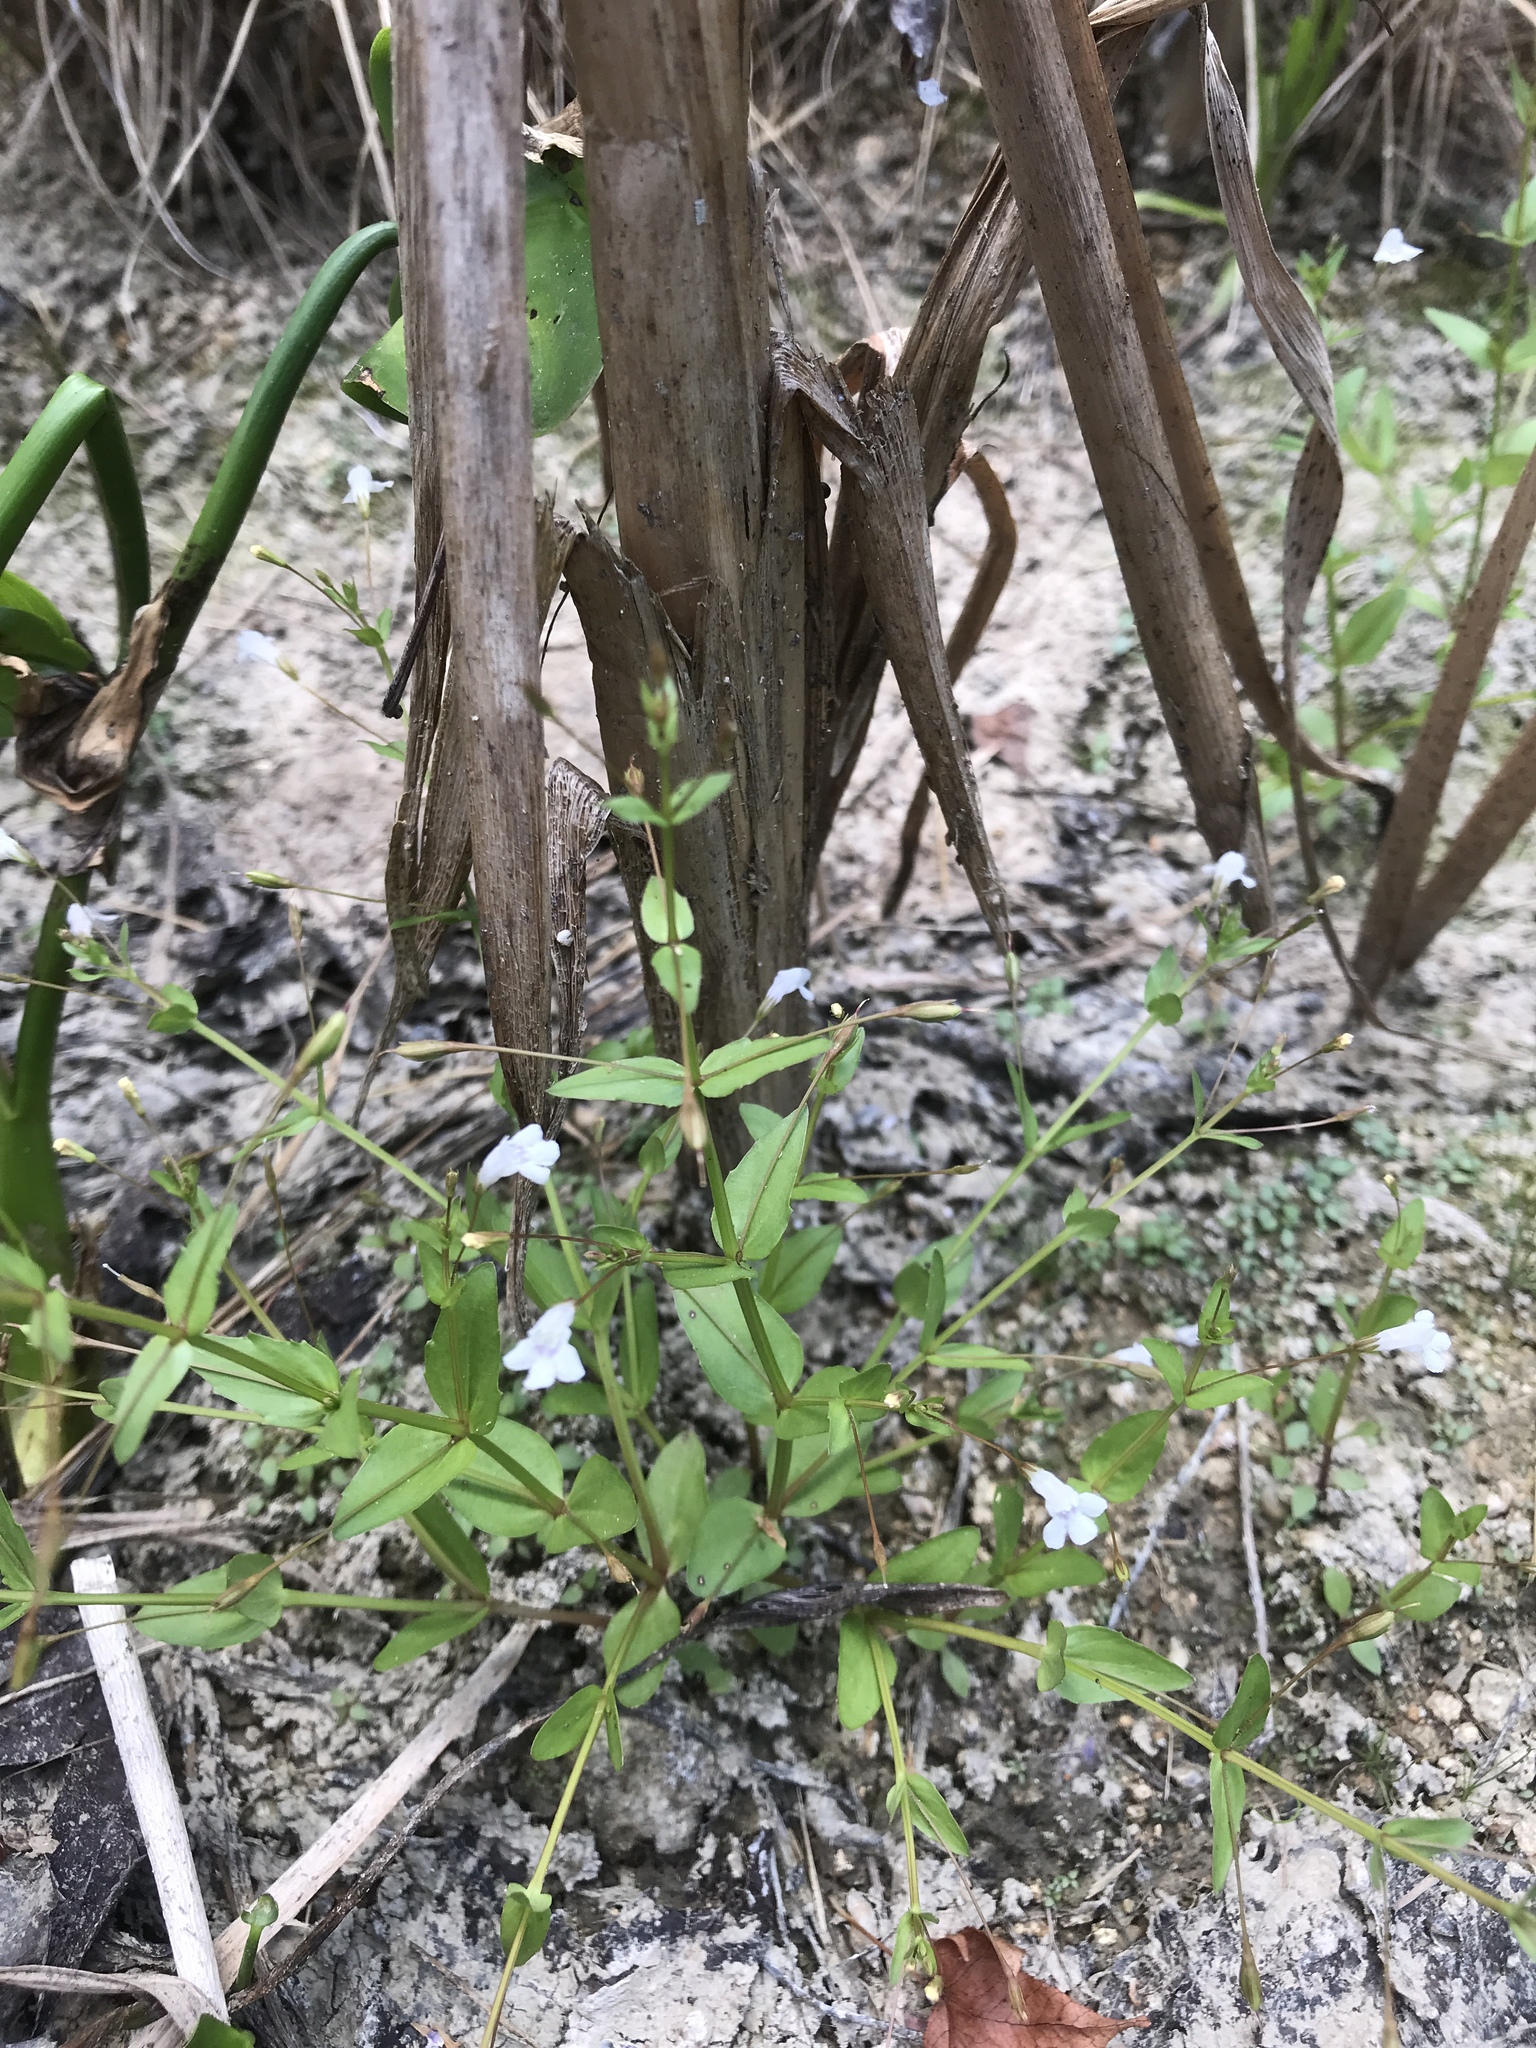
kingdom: Plantae
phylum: Tracheophyta
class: Magnoliopsida
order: Lamiales
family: Linderniaceae
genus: Lindernia
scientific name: Lindernia dubia
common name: Annual false pimpernel
